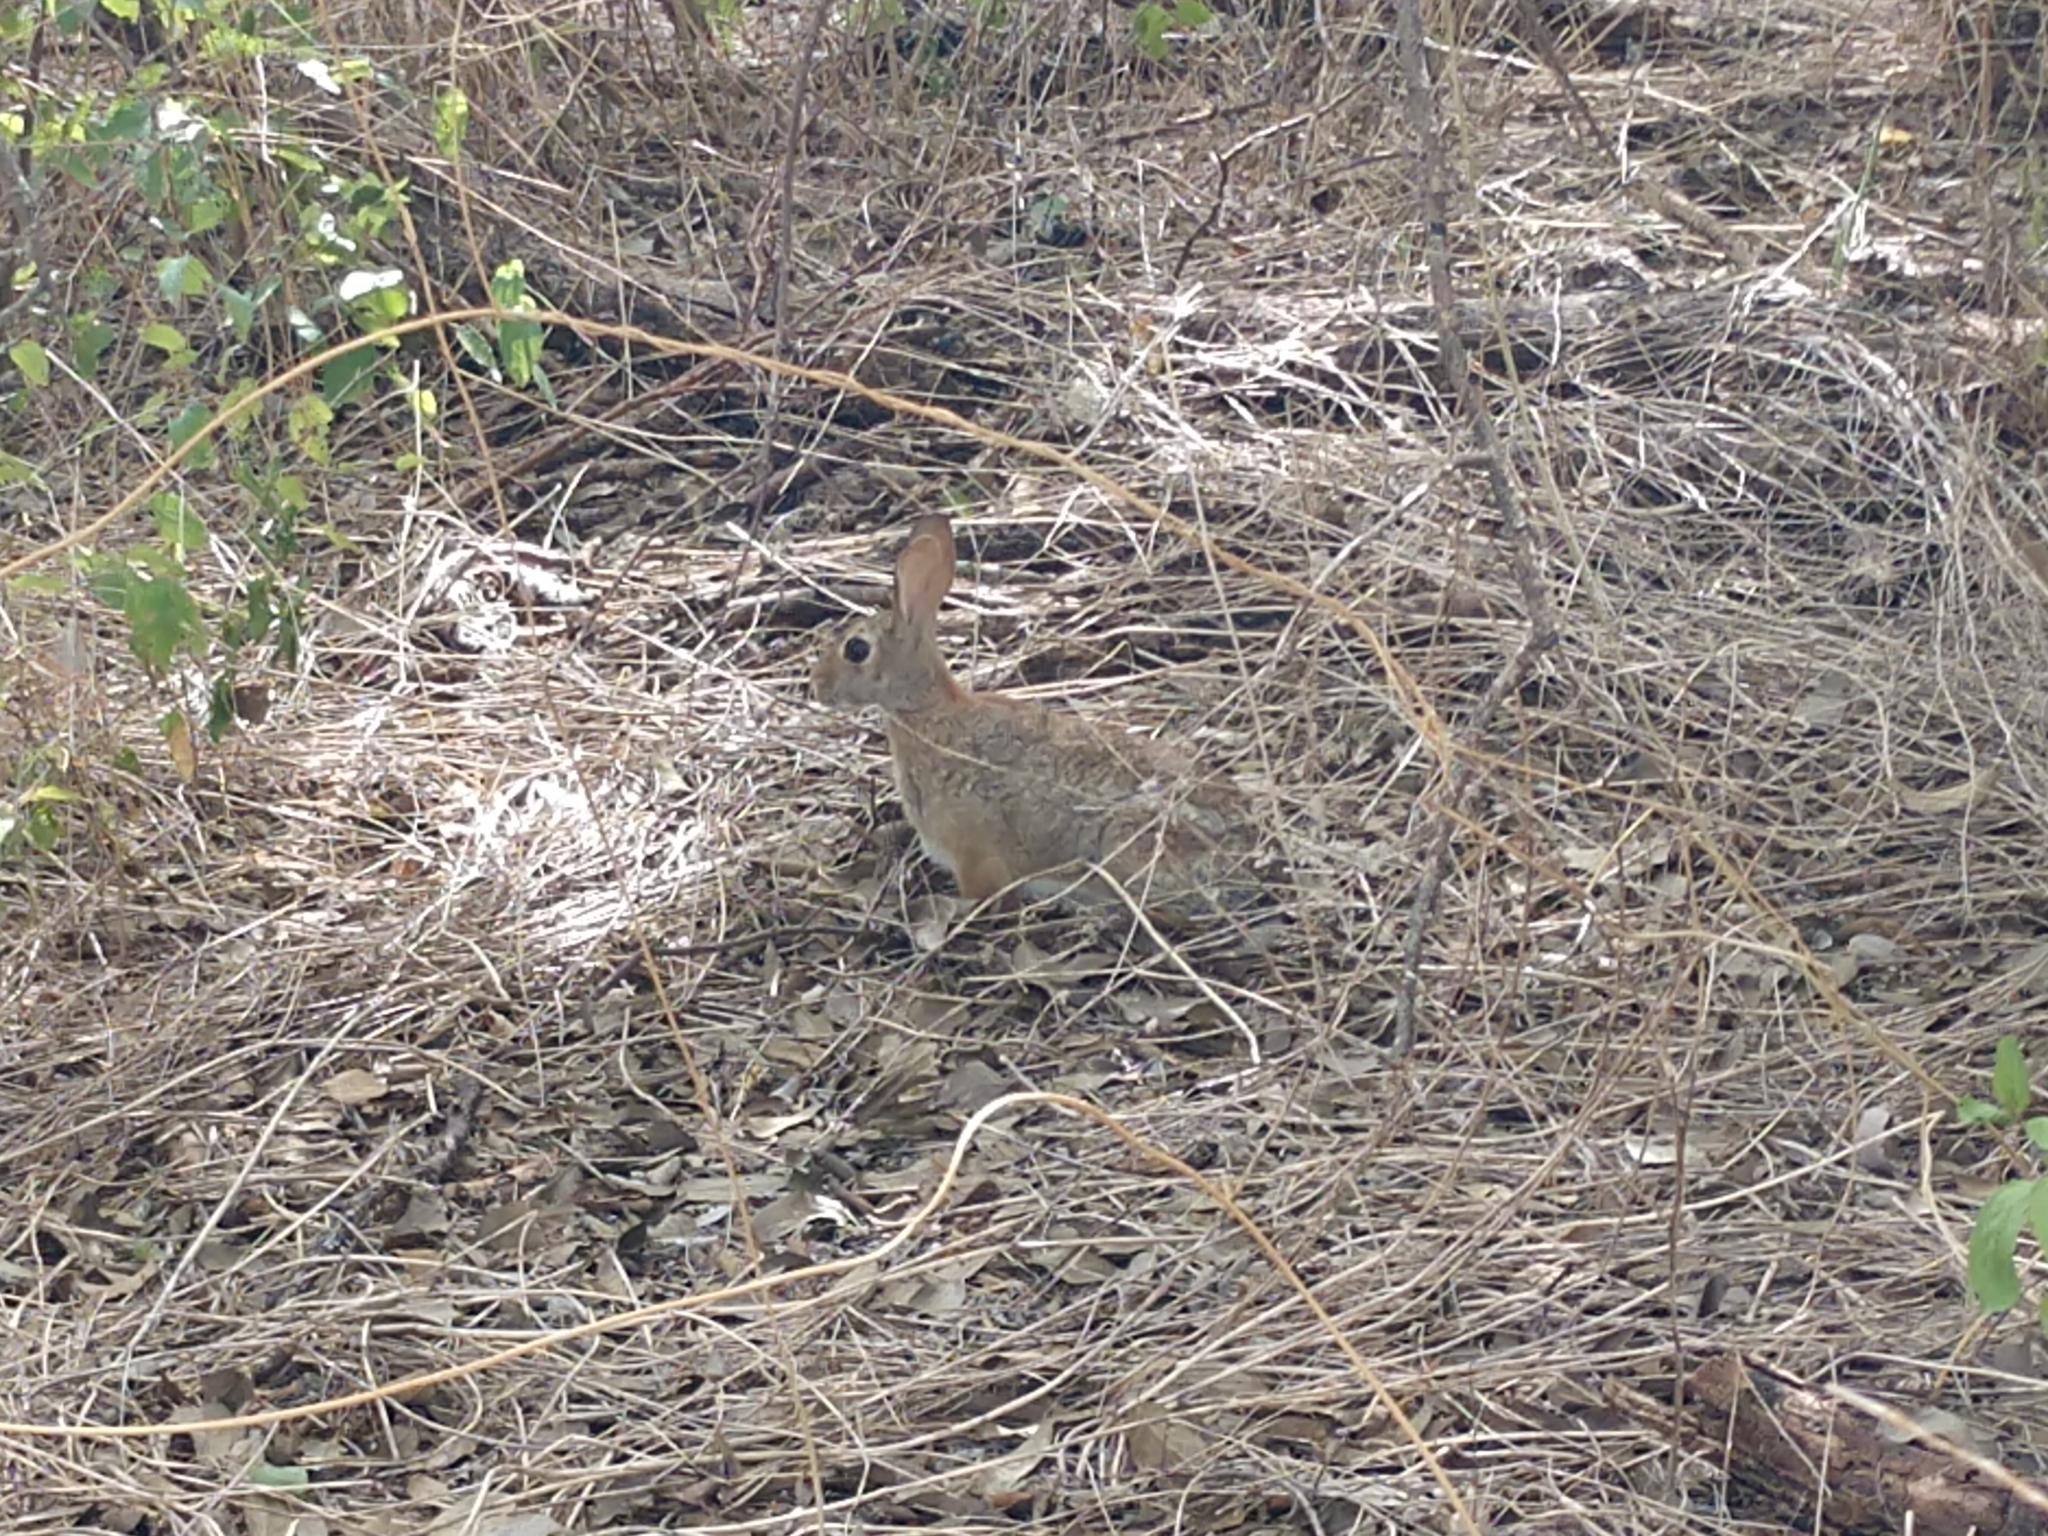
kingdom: Animalia
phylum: Chordata
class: Mammalia
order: Lagomorpha
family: Leporidae
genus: Sylvilagus
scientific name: Sylvilagus floridanus
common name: Eastern cottontail
